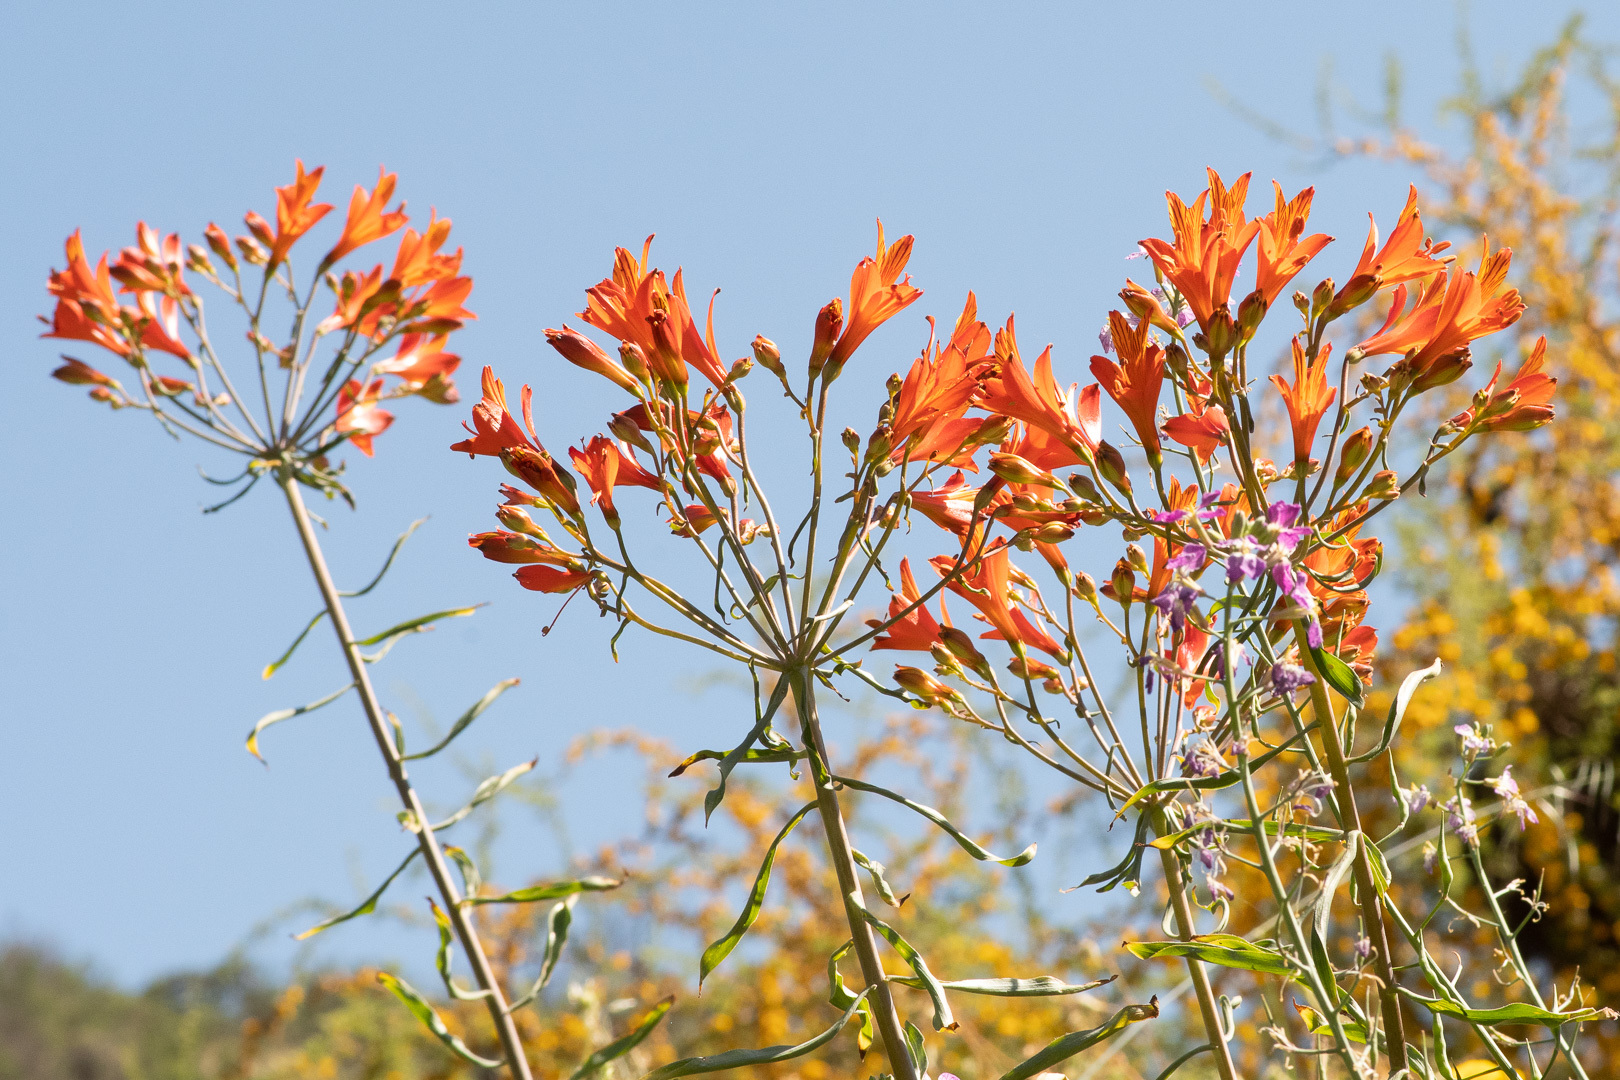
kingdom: Plantae
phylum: Tracheophyta
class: Liliopsida
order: Liliales
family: Alstroemeriaceae
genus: Alstroemeria
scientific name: Alstroemeria ligtu
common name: St. martin's-flower
